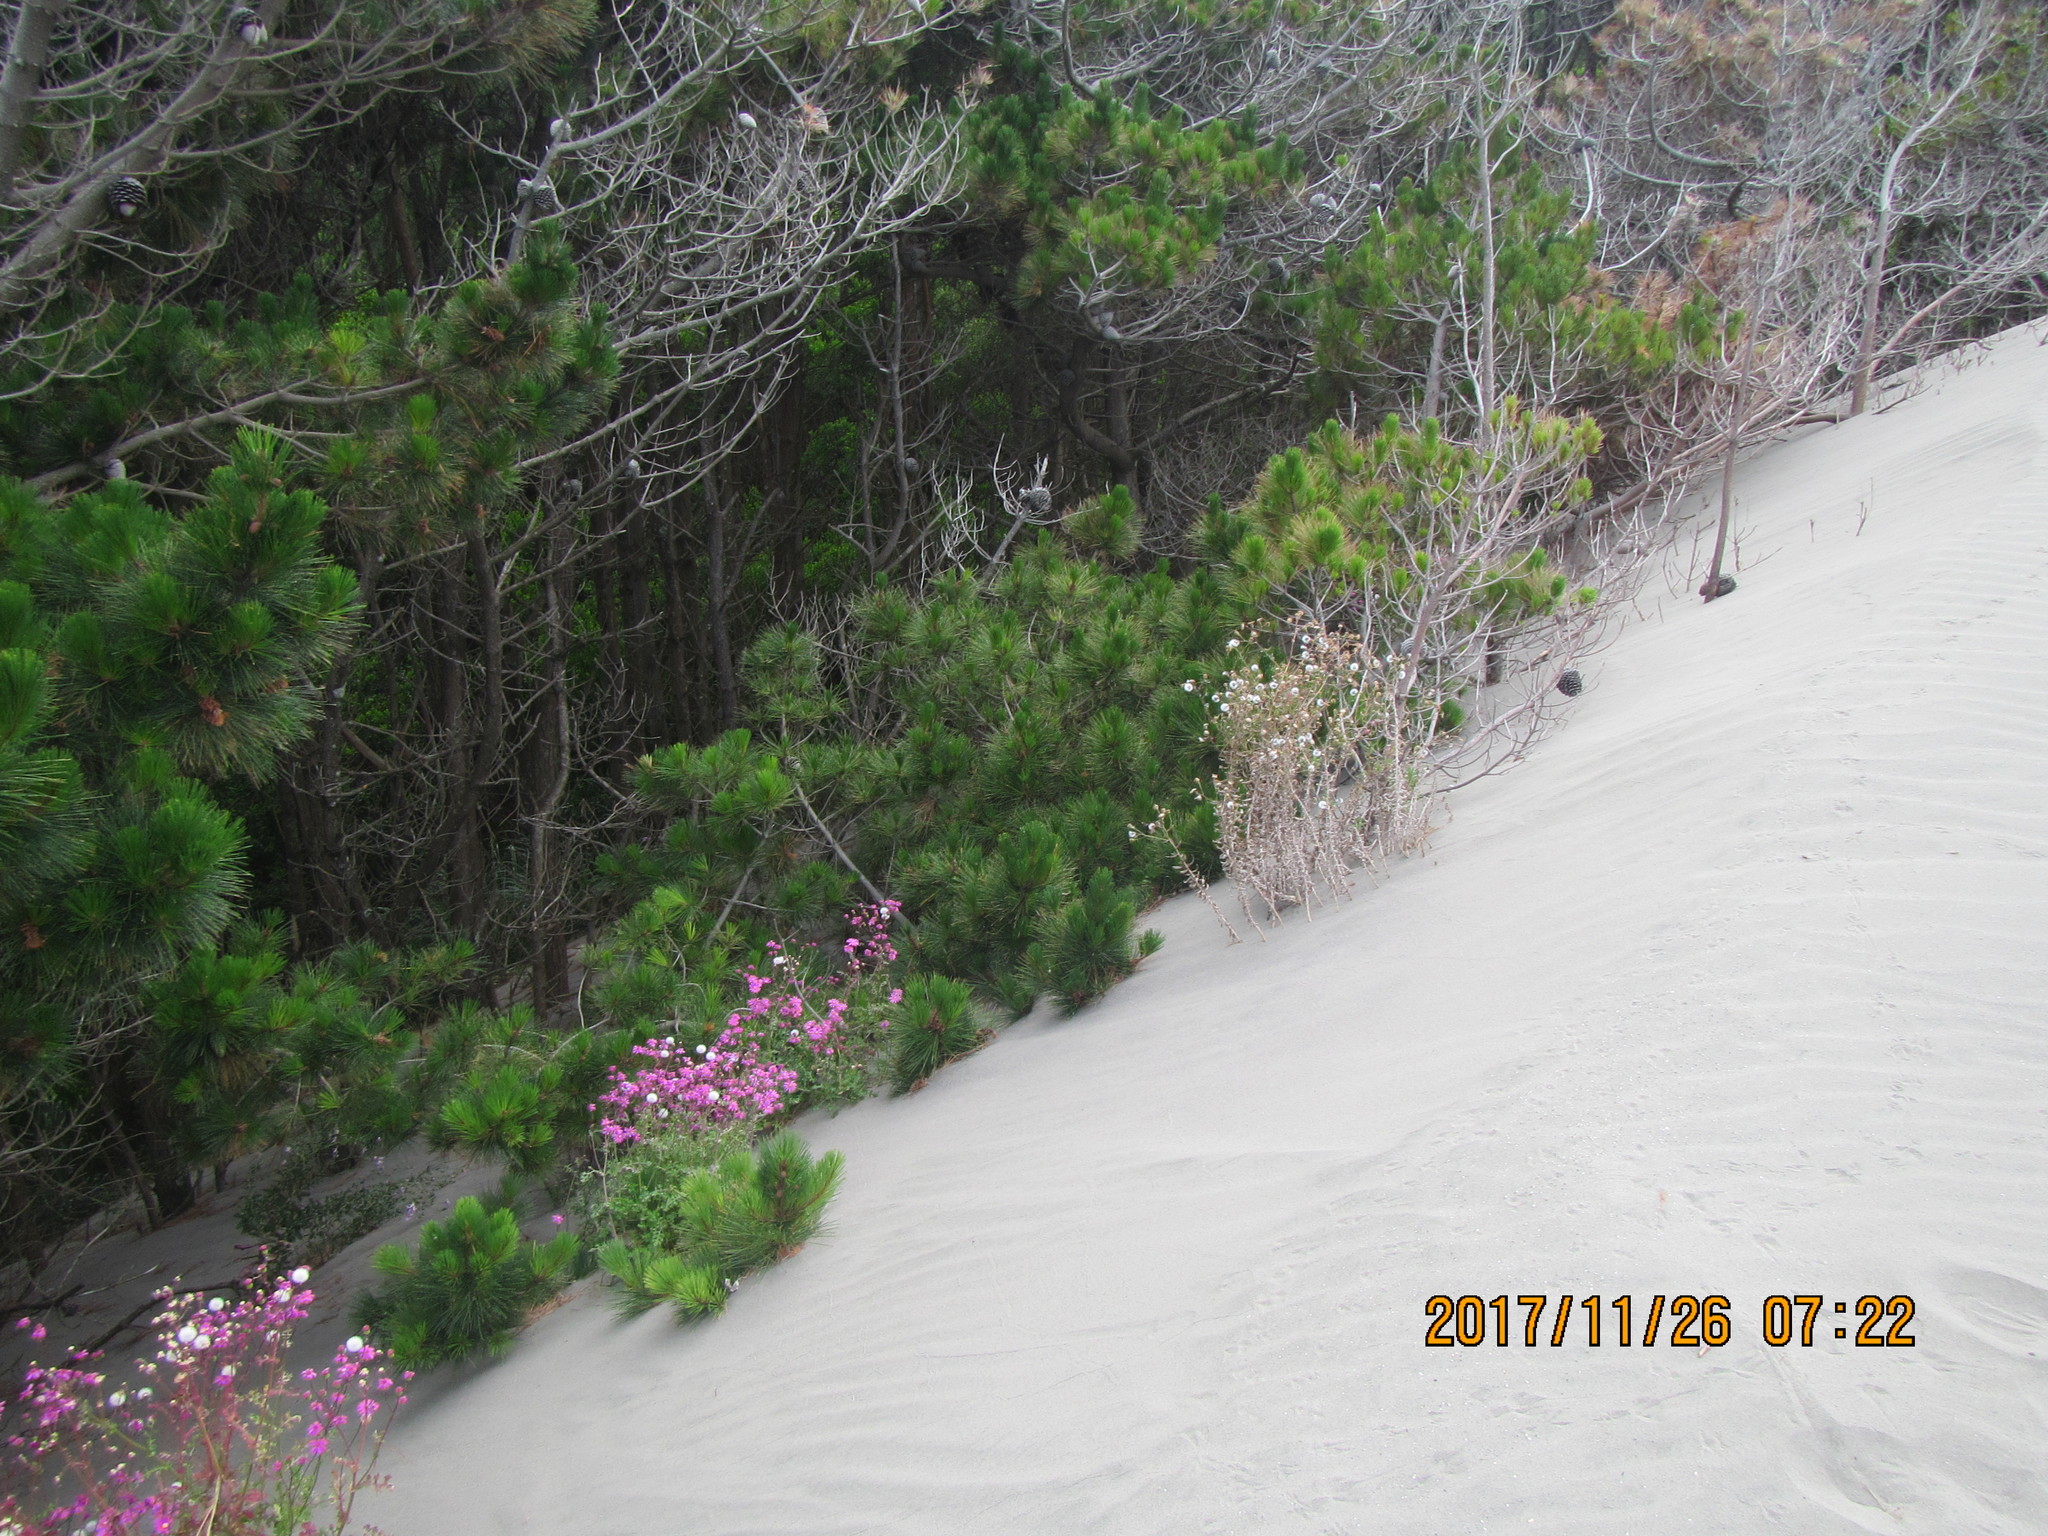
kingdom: Plantae
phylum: Tracheophyta
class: Pinopsida
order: Pinales
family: Pinaceae
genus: Pinus
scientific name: Pinus radiata
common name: Monterey pine
